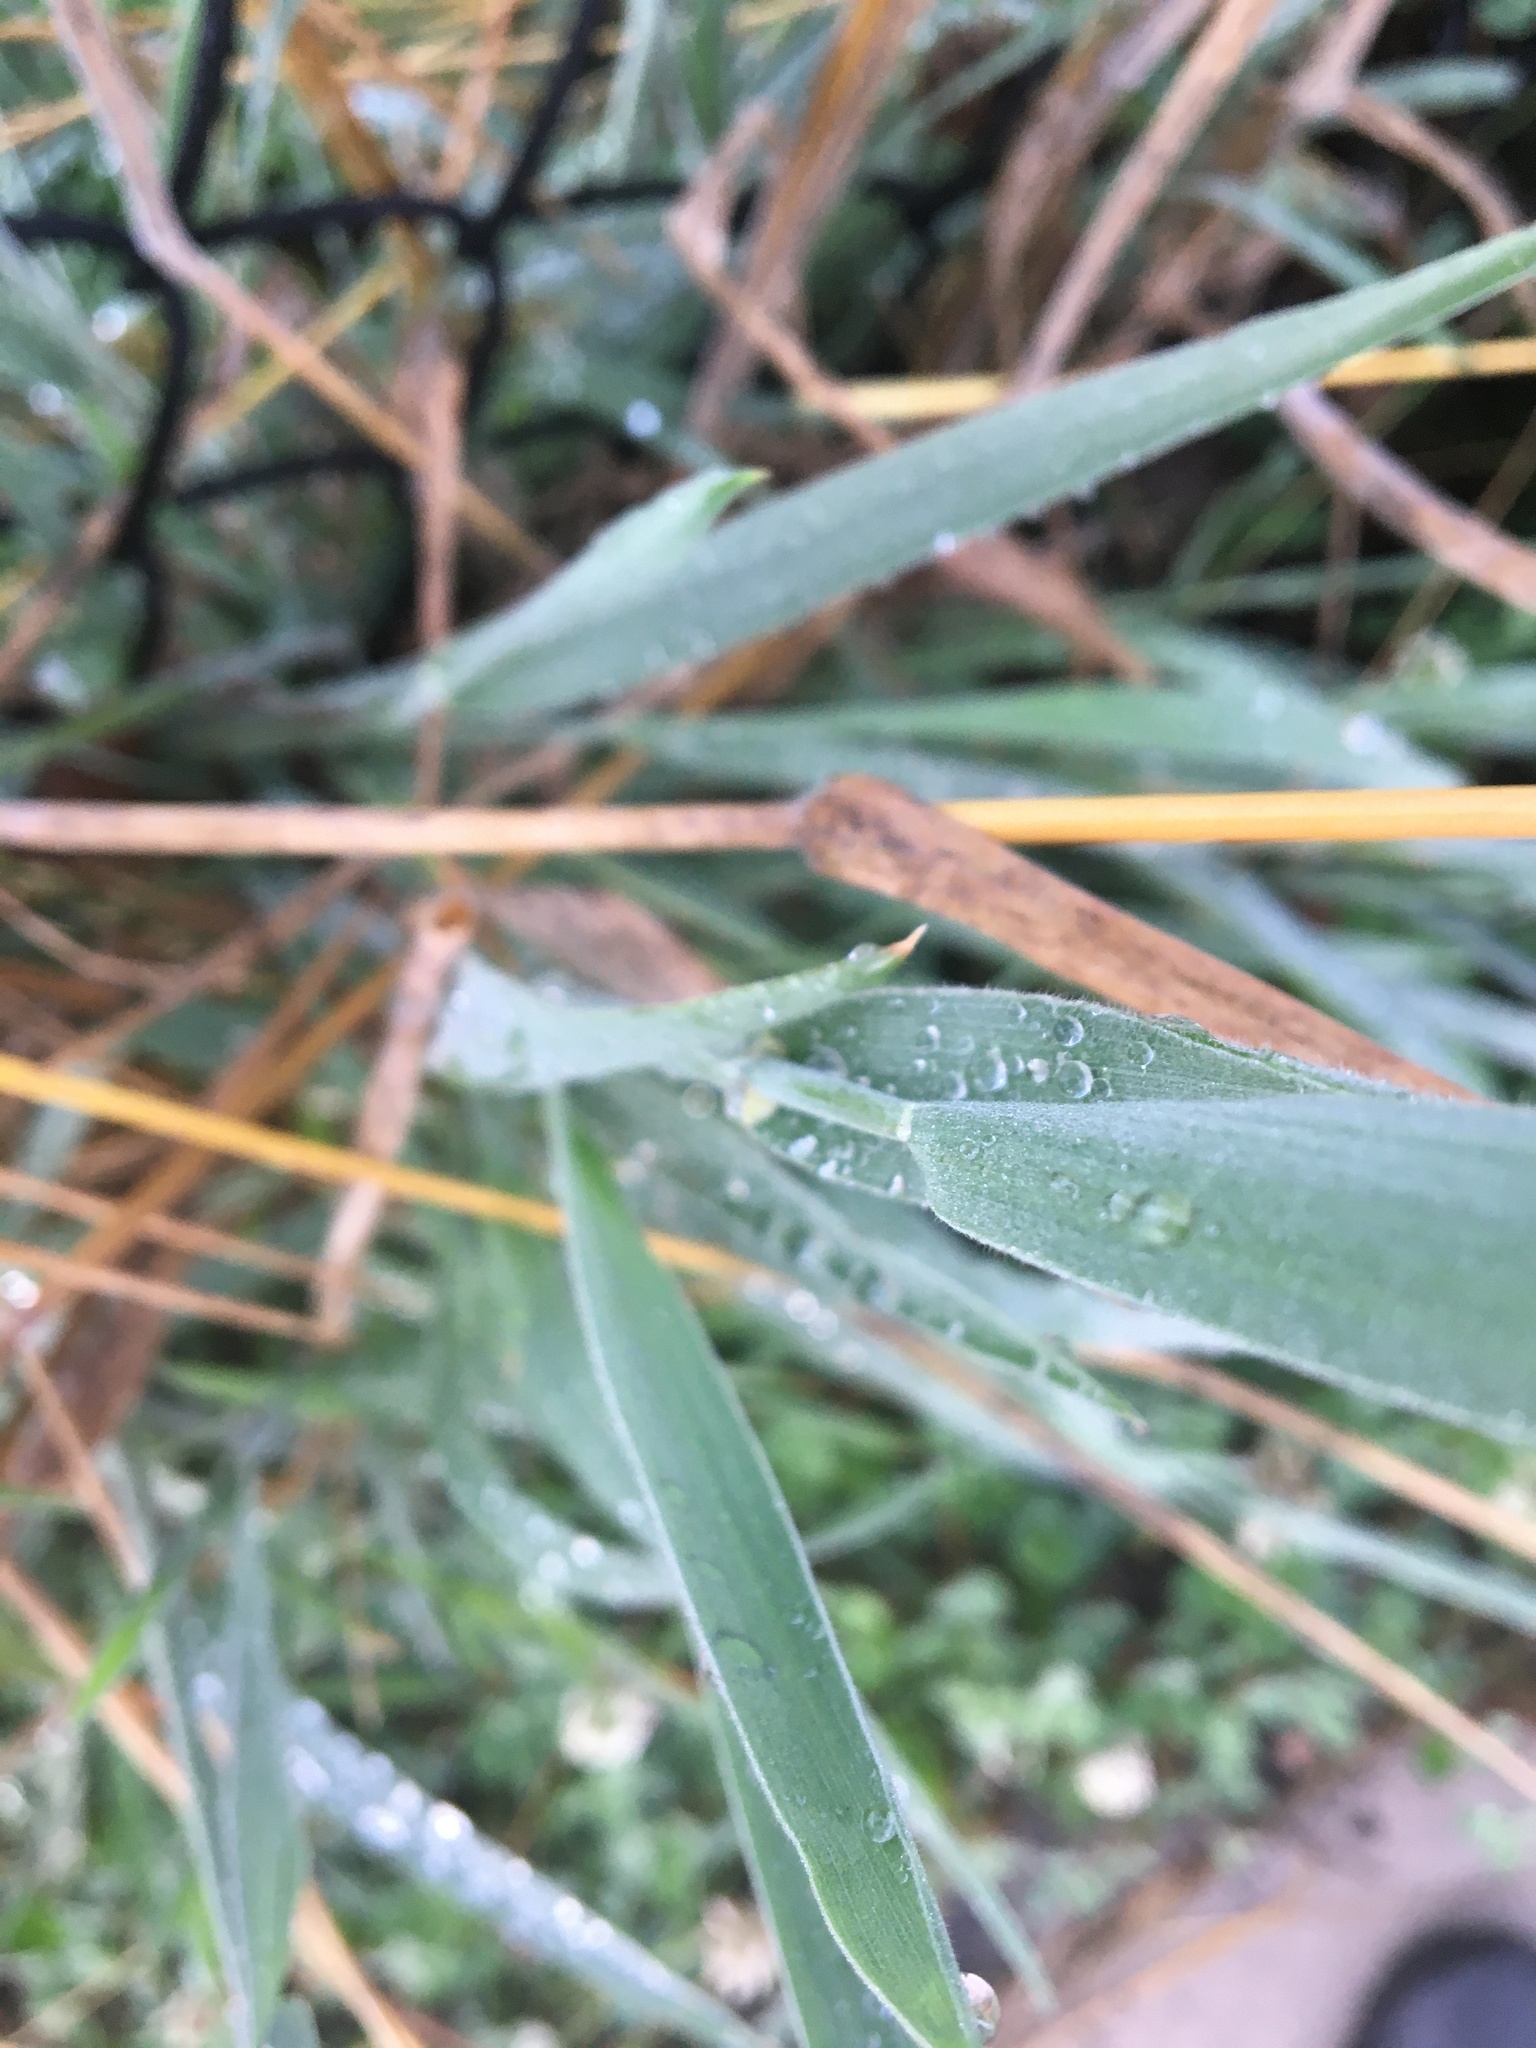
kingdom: Plantae
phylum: Tracheophyta
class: Liliopsida
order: Poales
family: Poaceae
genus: Holcus
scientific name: Holcus lanatus
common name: Yorkshire-fog
